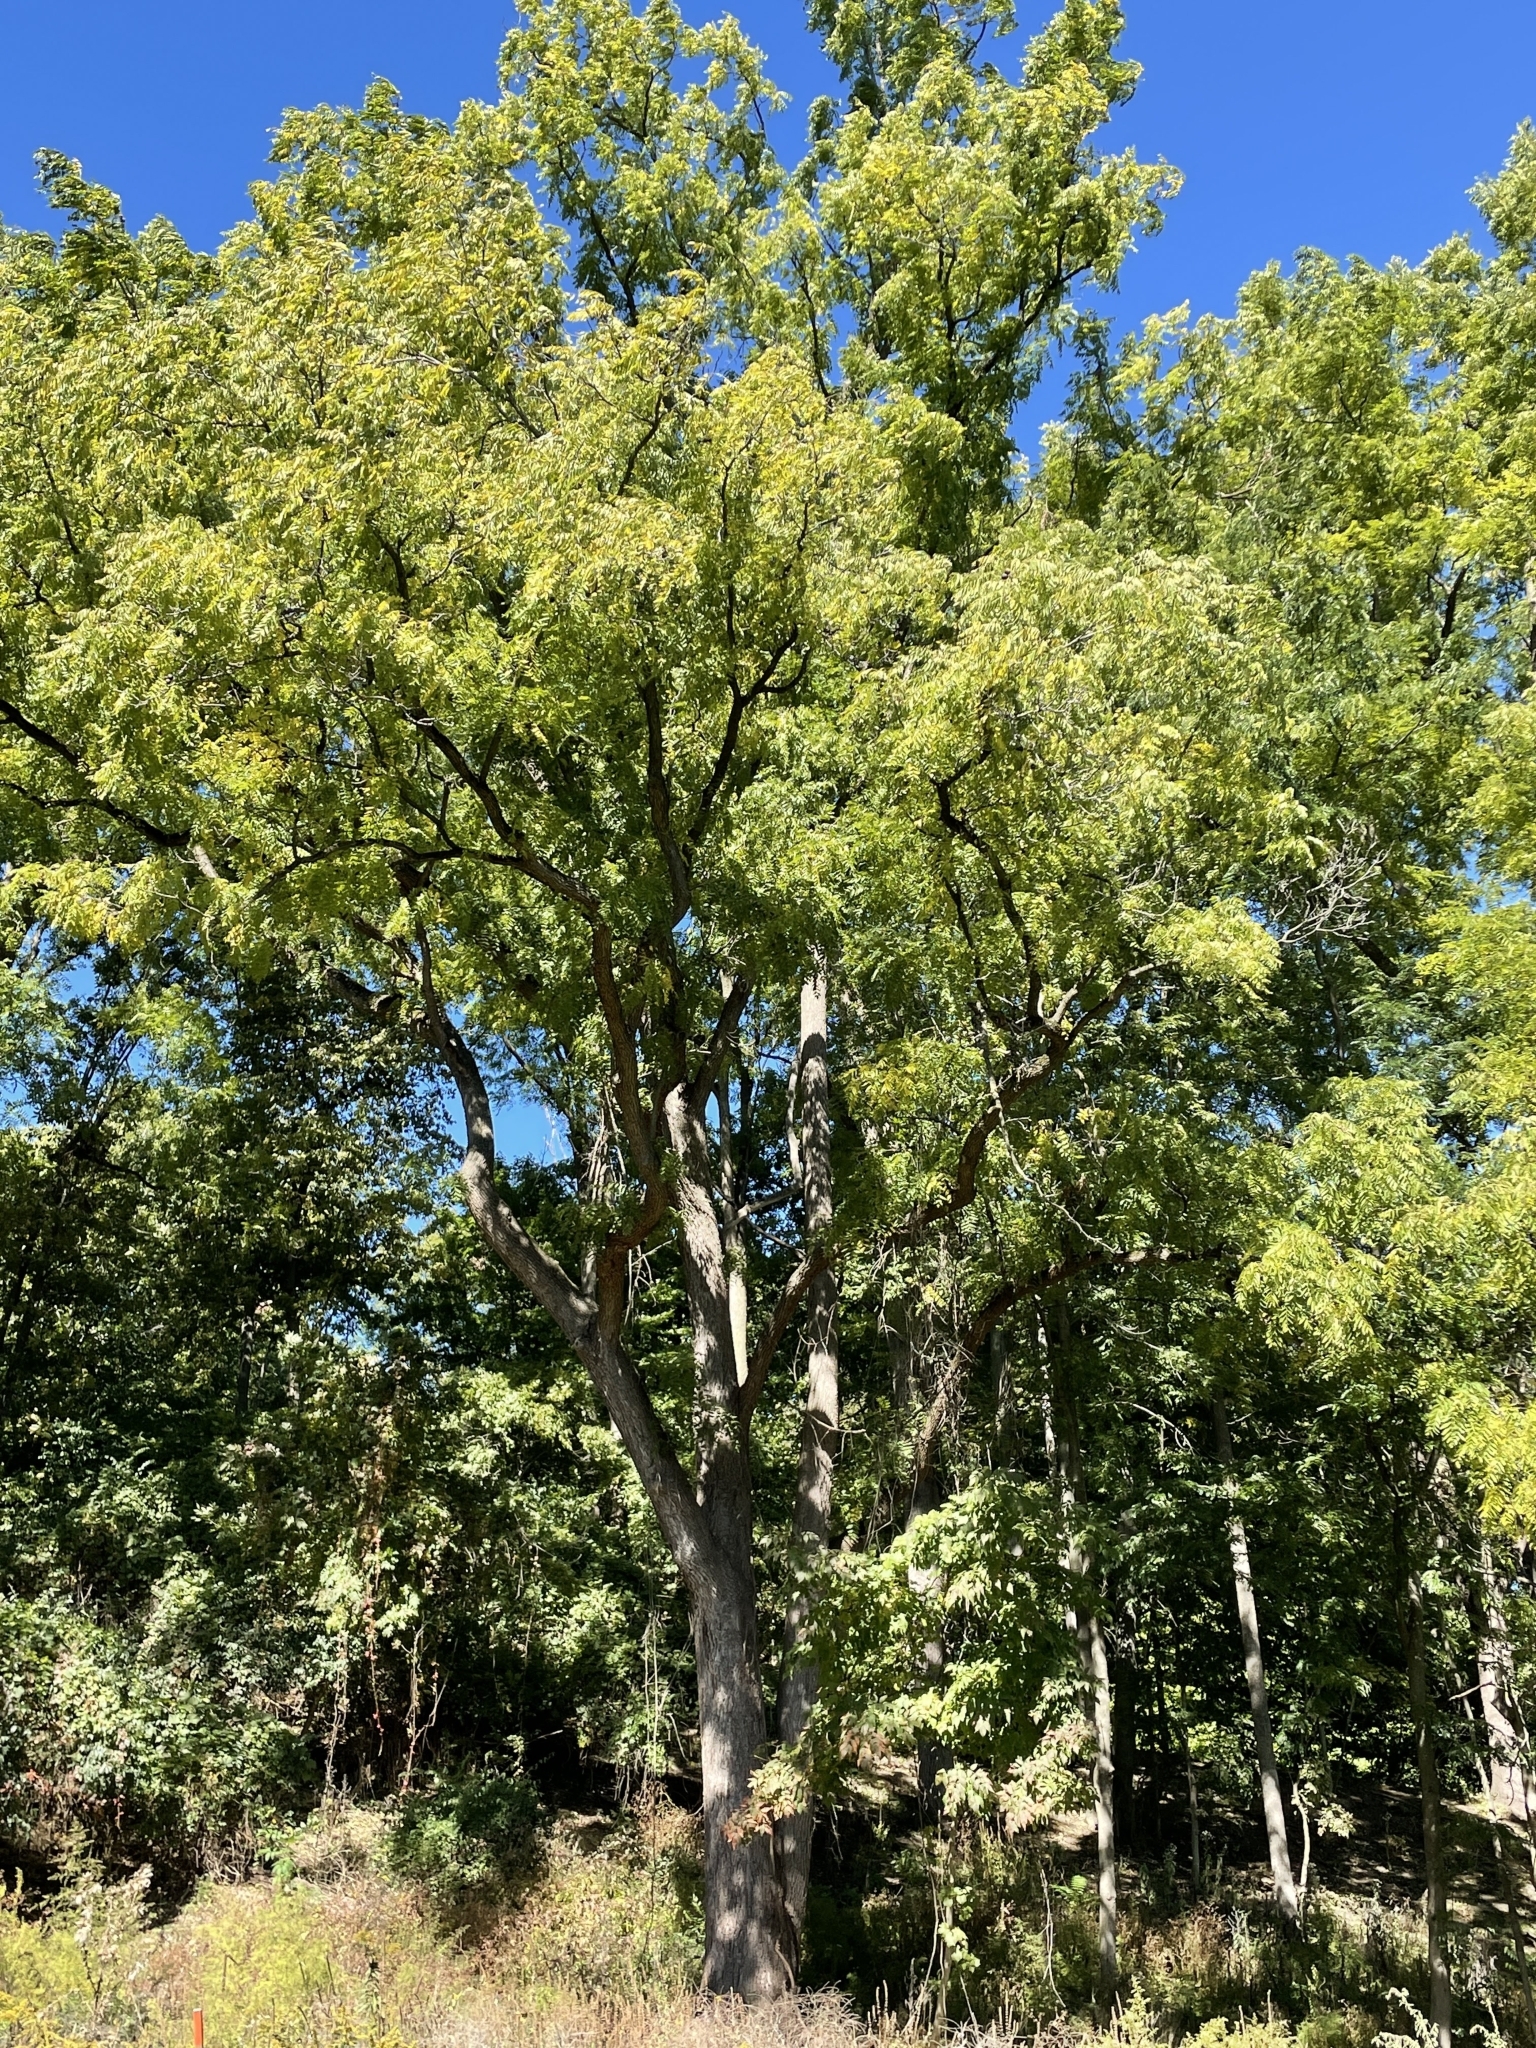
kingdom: Plantae
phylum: Tracheophyta
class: Magnoliopsida
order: Fagales
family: Juglandaceae
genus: Juglans
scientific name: Juglans nigra
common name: Black walnut
